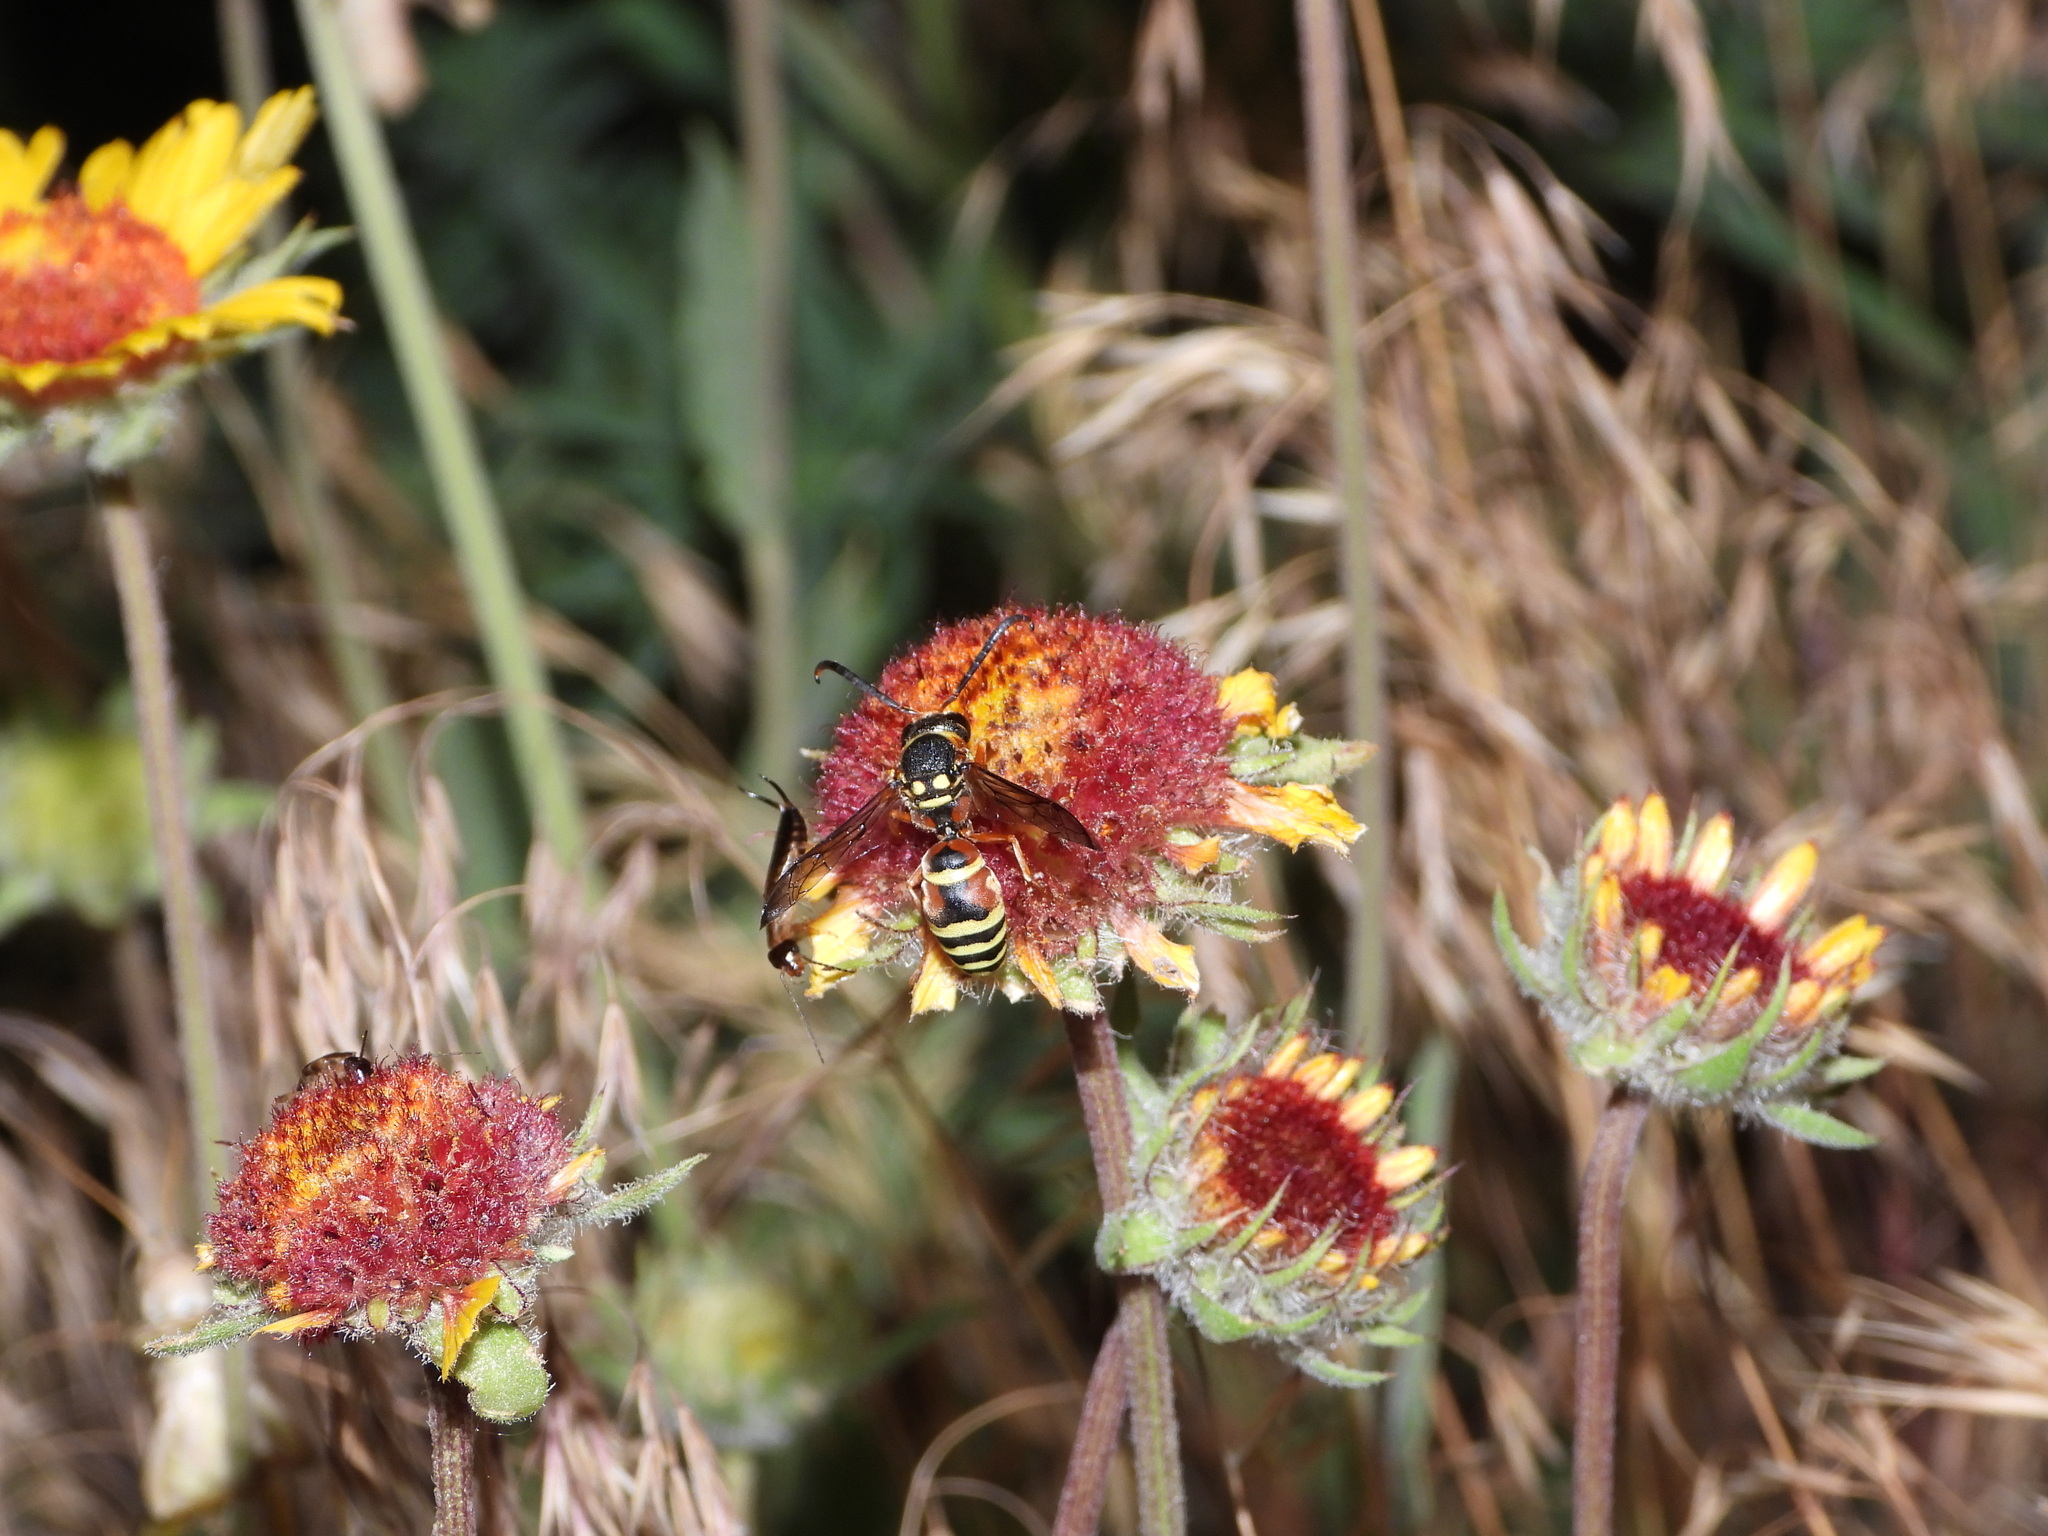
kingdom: Animalia
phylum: Arthropoda
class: Insecta
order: Hymenoptera
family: Eumenidae
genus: Pterocheilus
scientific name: Pterocheilus quinquefasciatus
